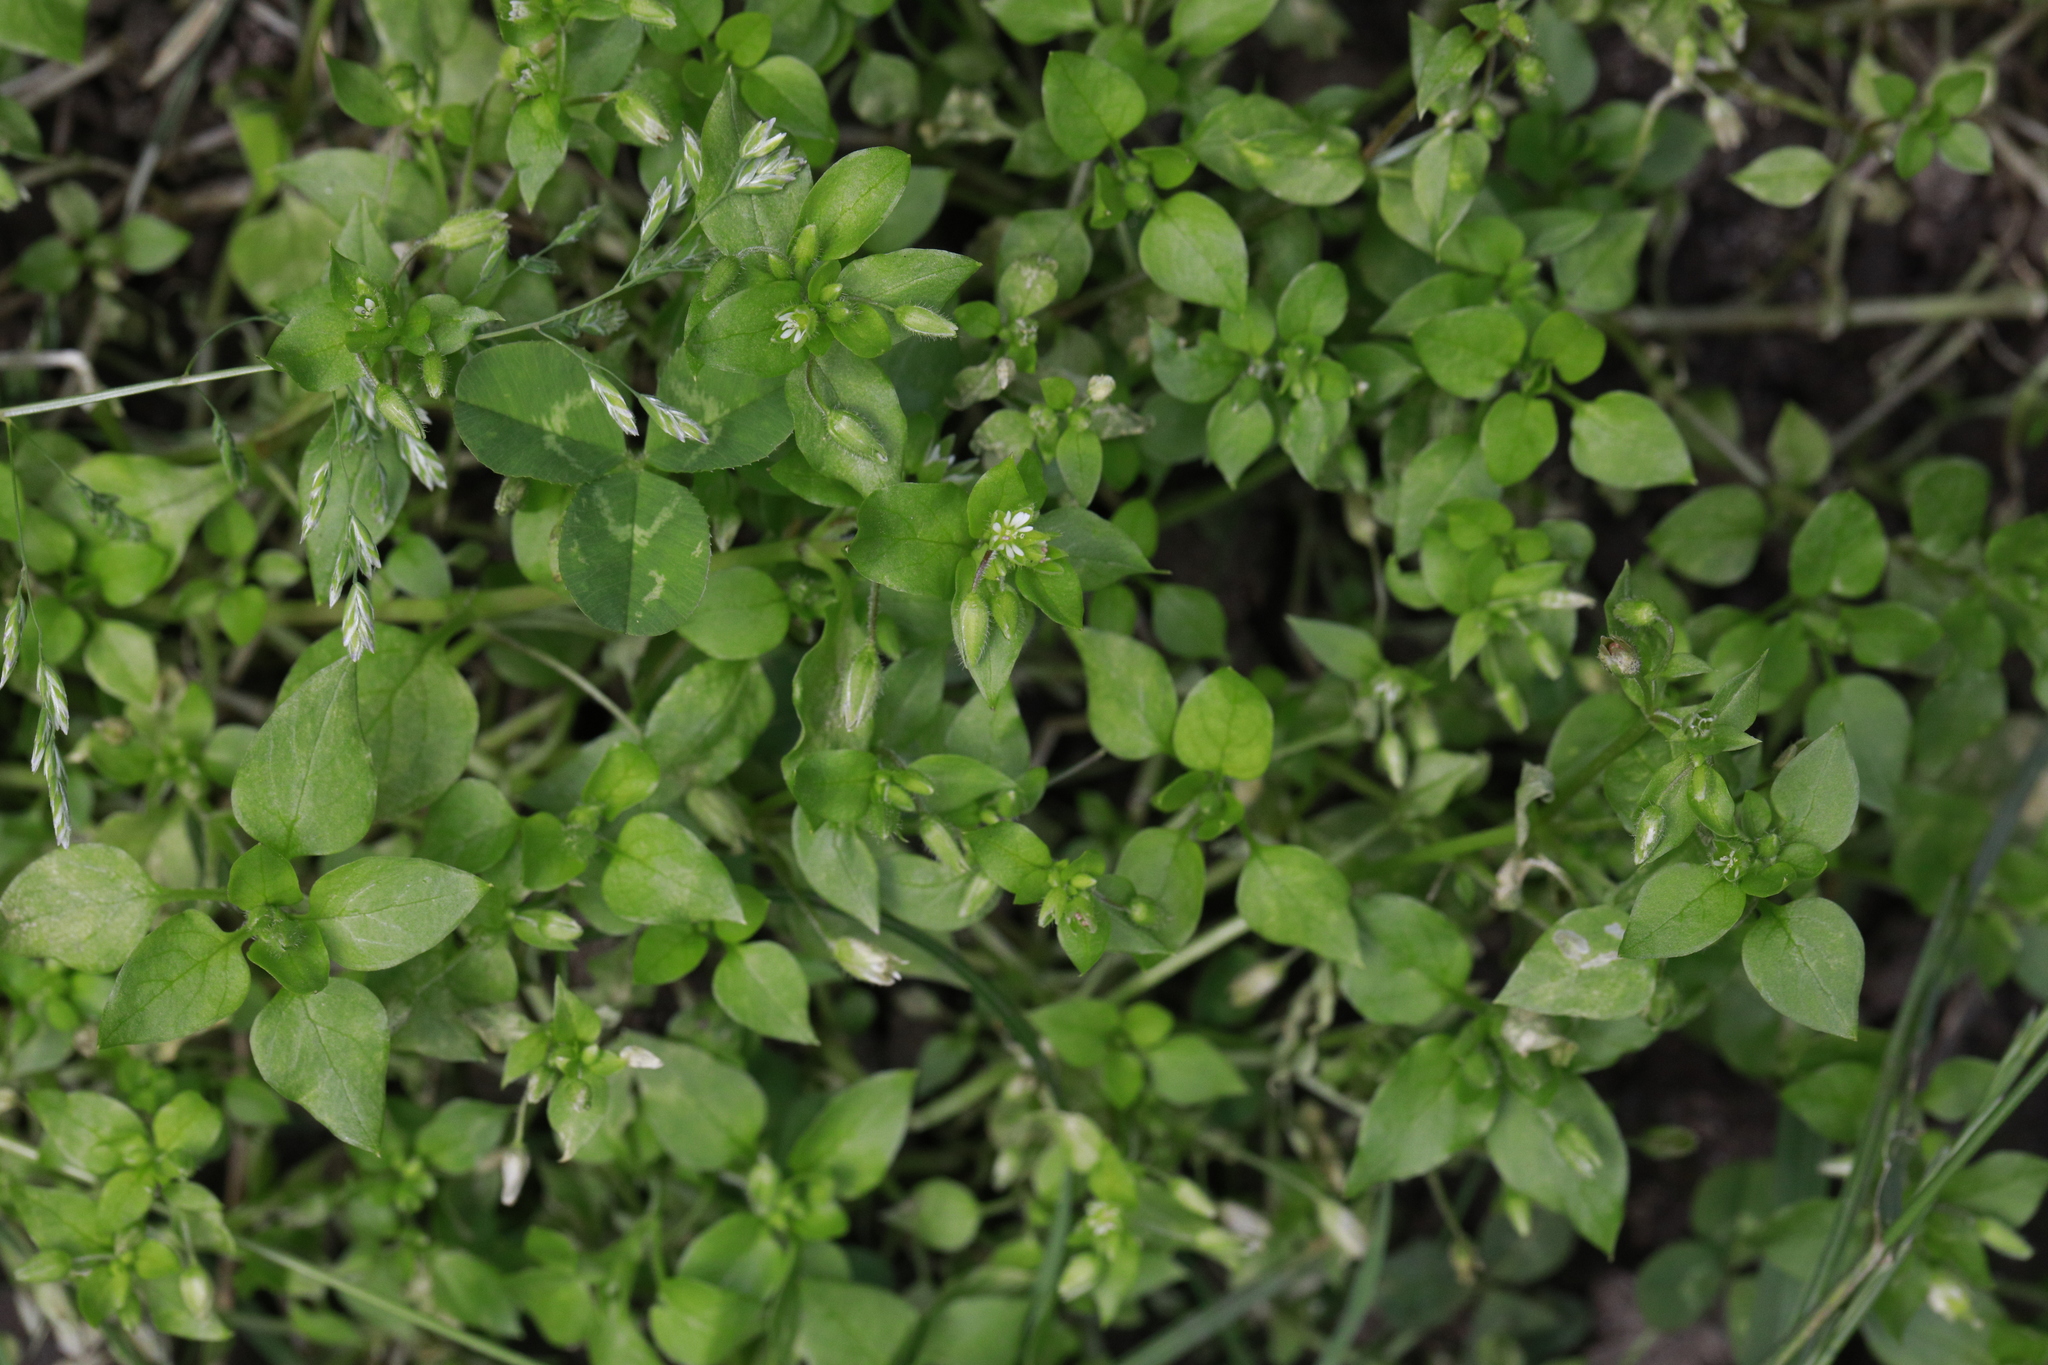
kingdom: Plantae
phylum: Tracheophyta
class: Magnoliopsida
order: Caryophyllales
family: Caryophyllaceae
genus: Stellaria
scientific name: Stellaria media
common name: Common chickweed
